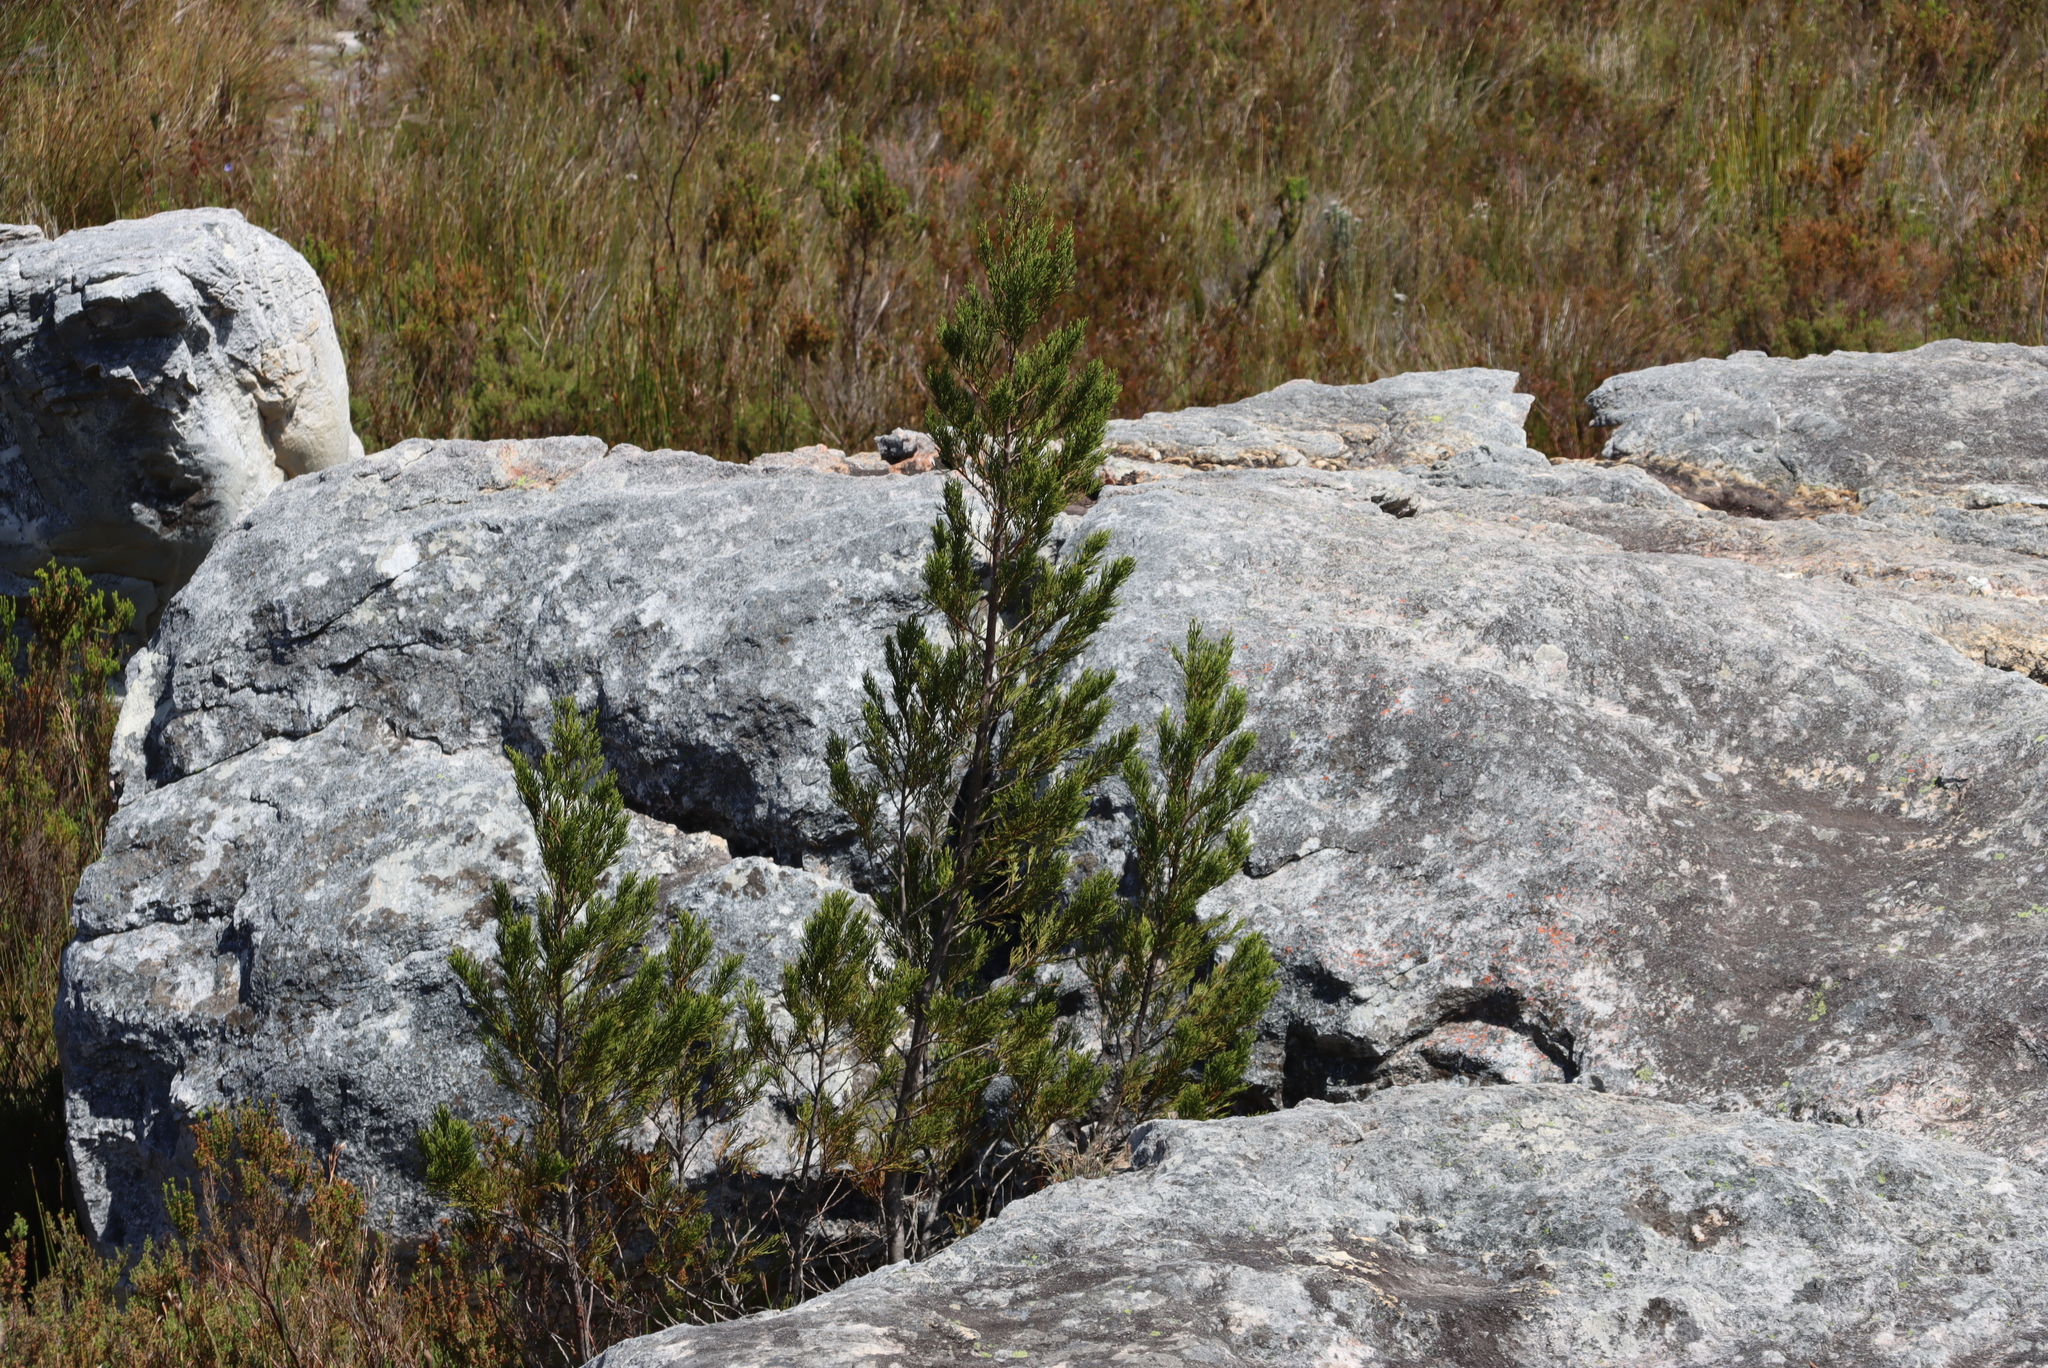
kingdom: Plantae
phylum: Tracheophyta
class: Pinopsida
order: Pinales
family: Cupressaceae
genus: Widdringtonia
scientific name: Widdringtonia nodiflora
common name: Cape cypress
